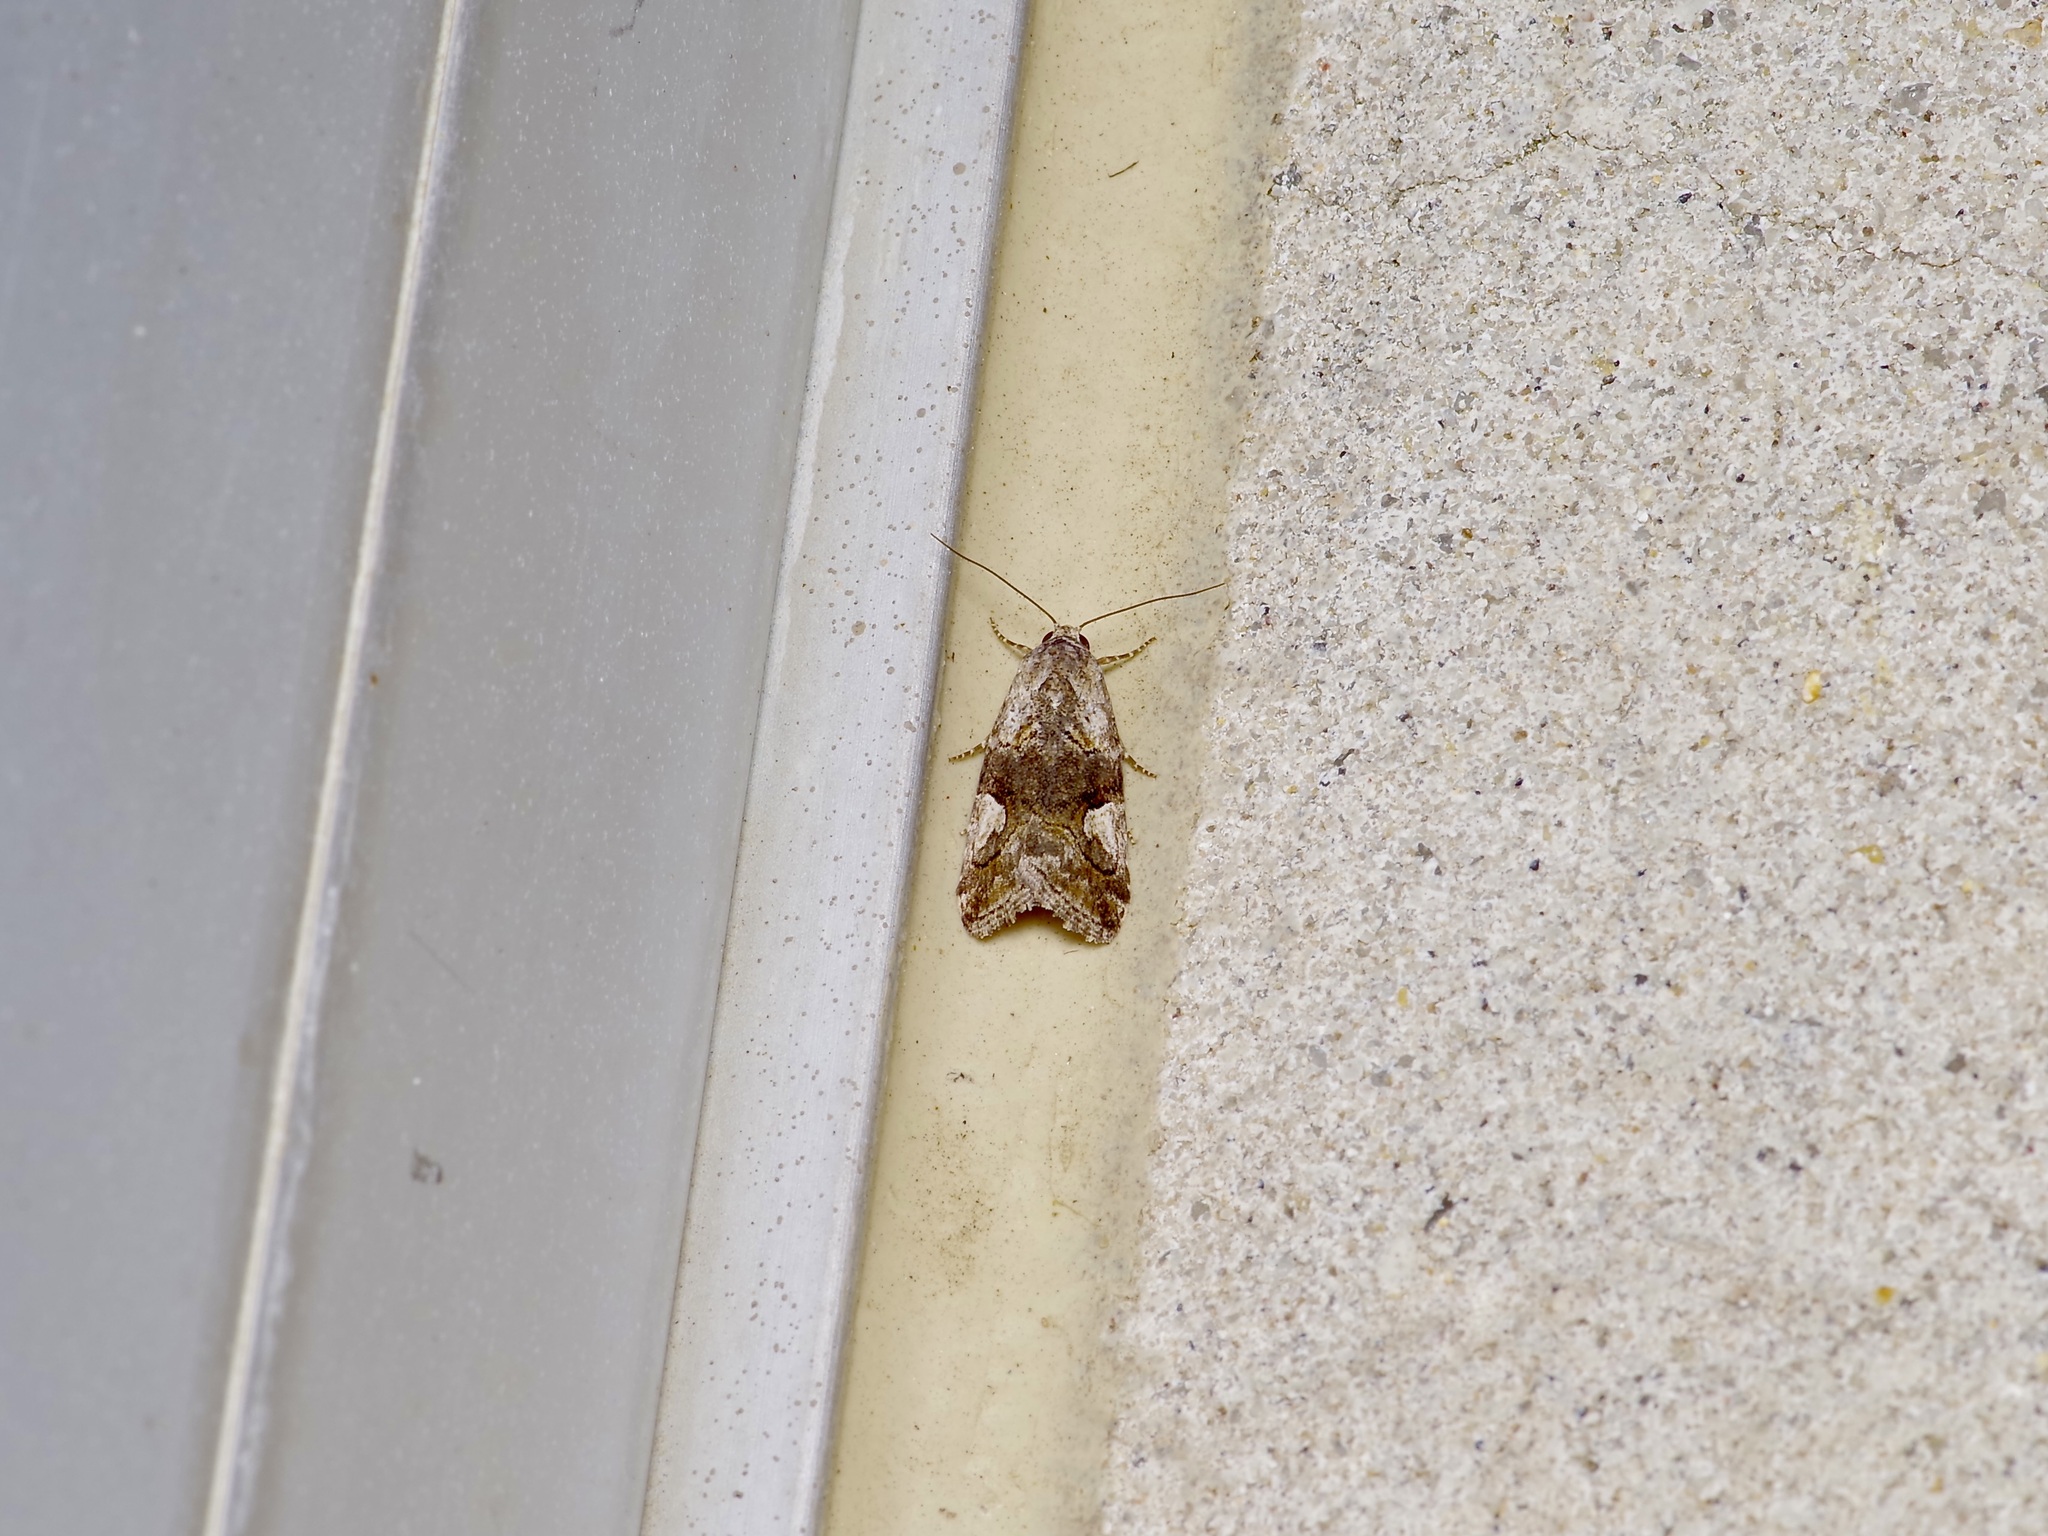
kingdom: Animalia
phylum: Arthropoda
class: Insecta
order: Lepidoptera
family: Noctuidae
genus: Metaponpneumata
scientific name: Metaponpneumata rogenhoferi
